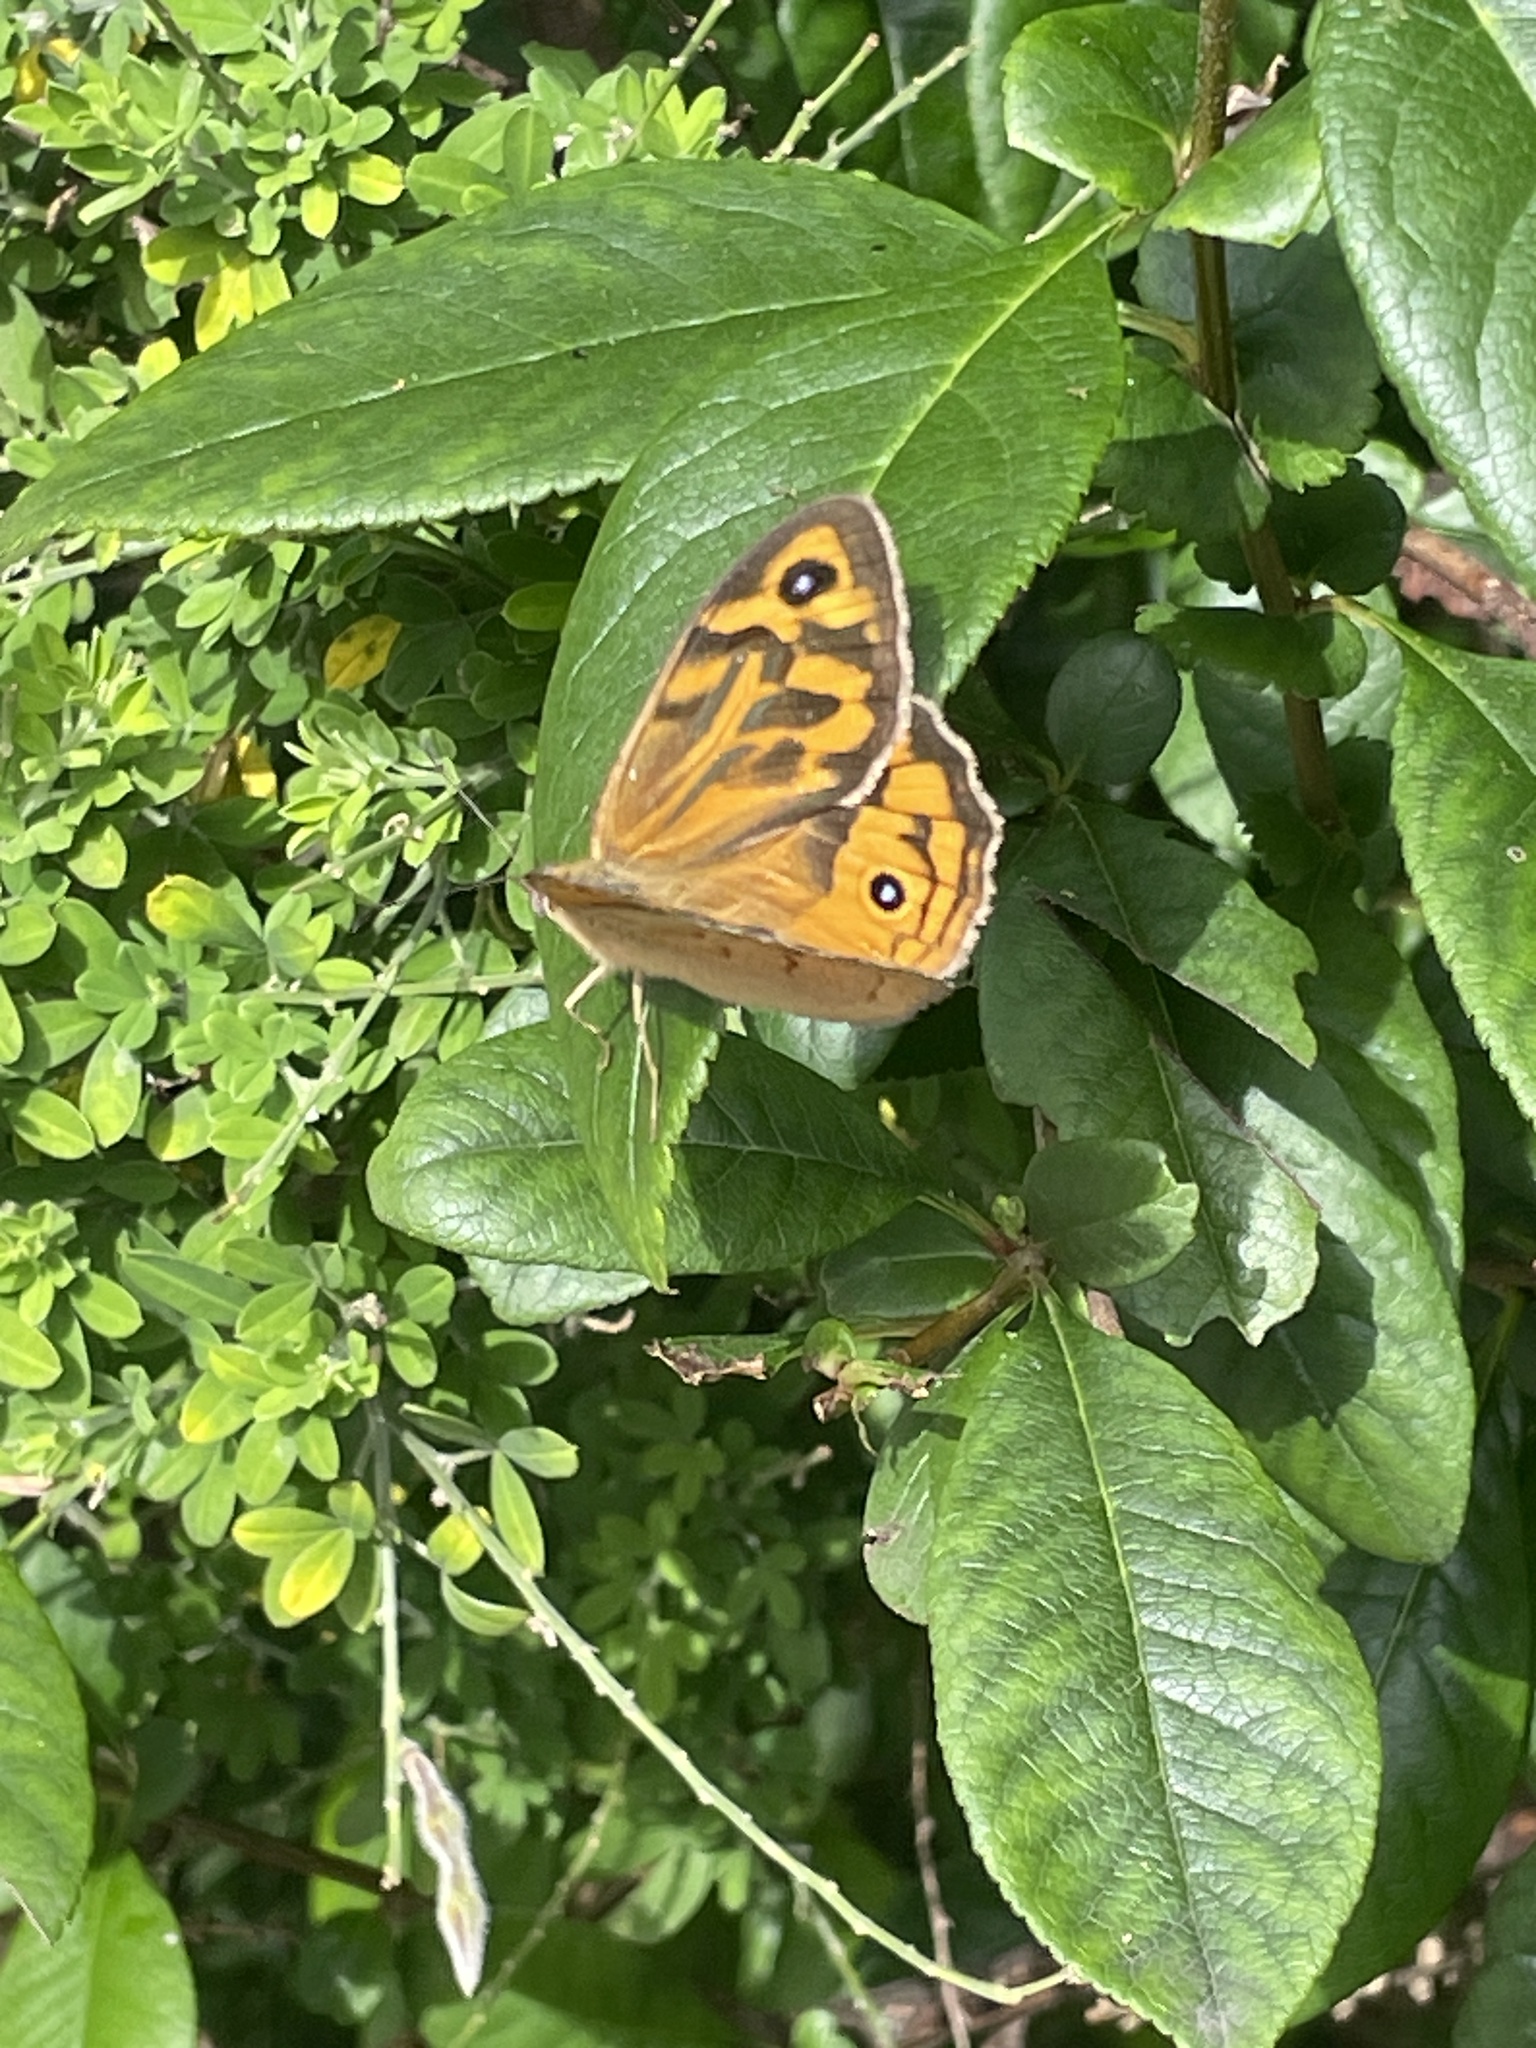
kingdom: Animalia
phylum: Arthropoda
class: Insecta
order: Lepidoptera
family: Nymphalidae
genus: Heteronympha
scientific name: Heteronympha merope
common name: Common brown
